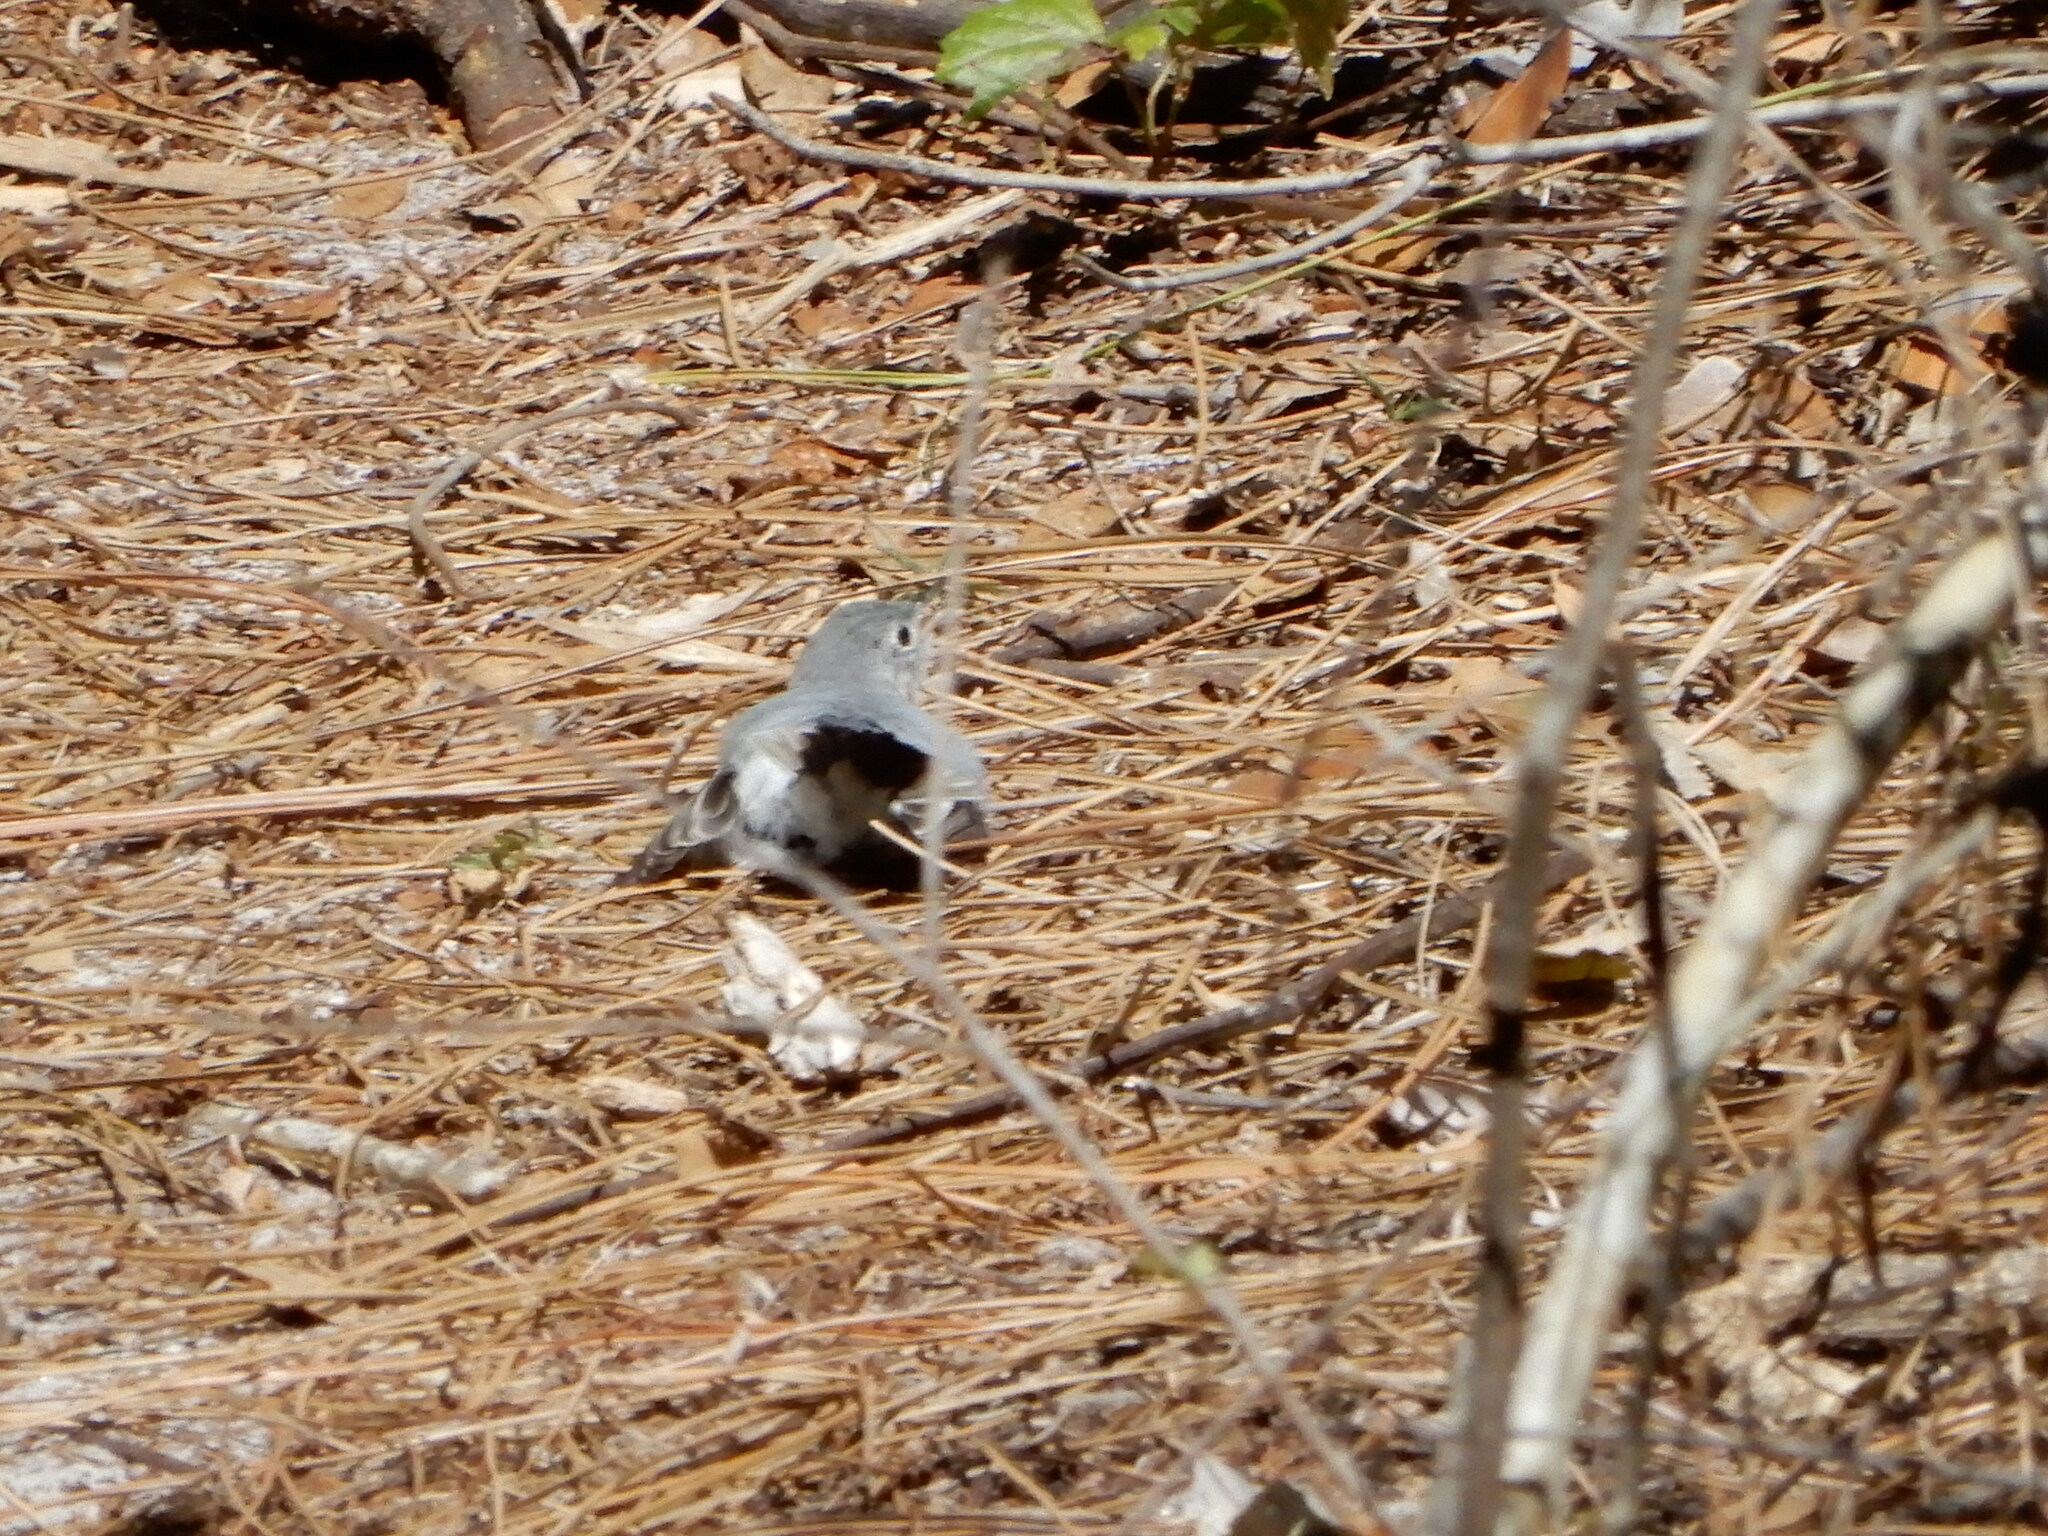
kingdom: Animalia
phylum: Chordata
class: Aves
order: Passeriformes
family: Polioptilidae
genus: Polioptila
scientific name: Polioptila caerulea
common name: Blue-gray gnatcatcher
